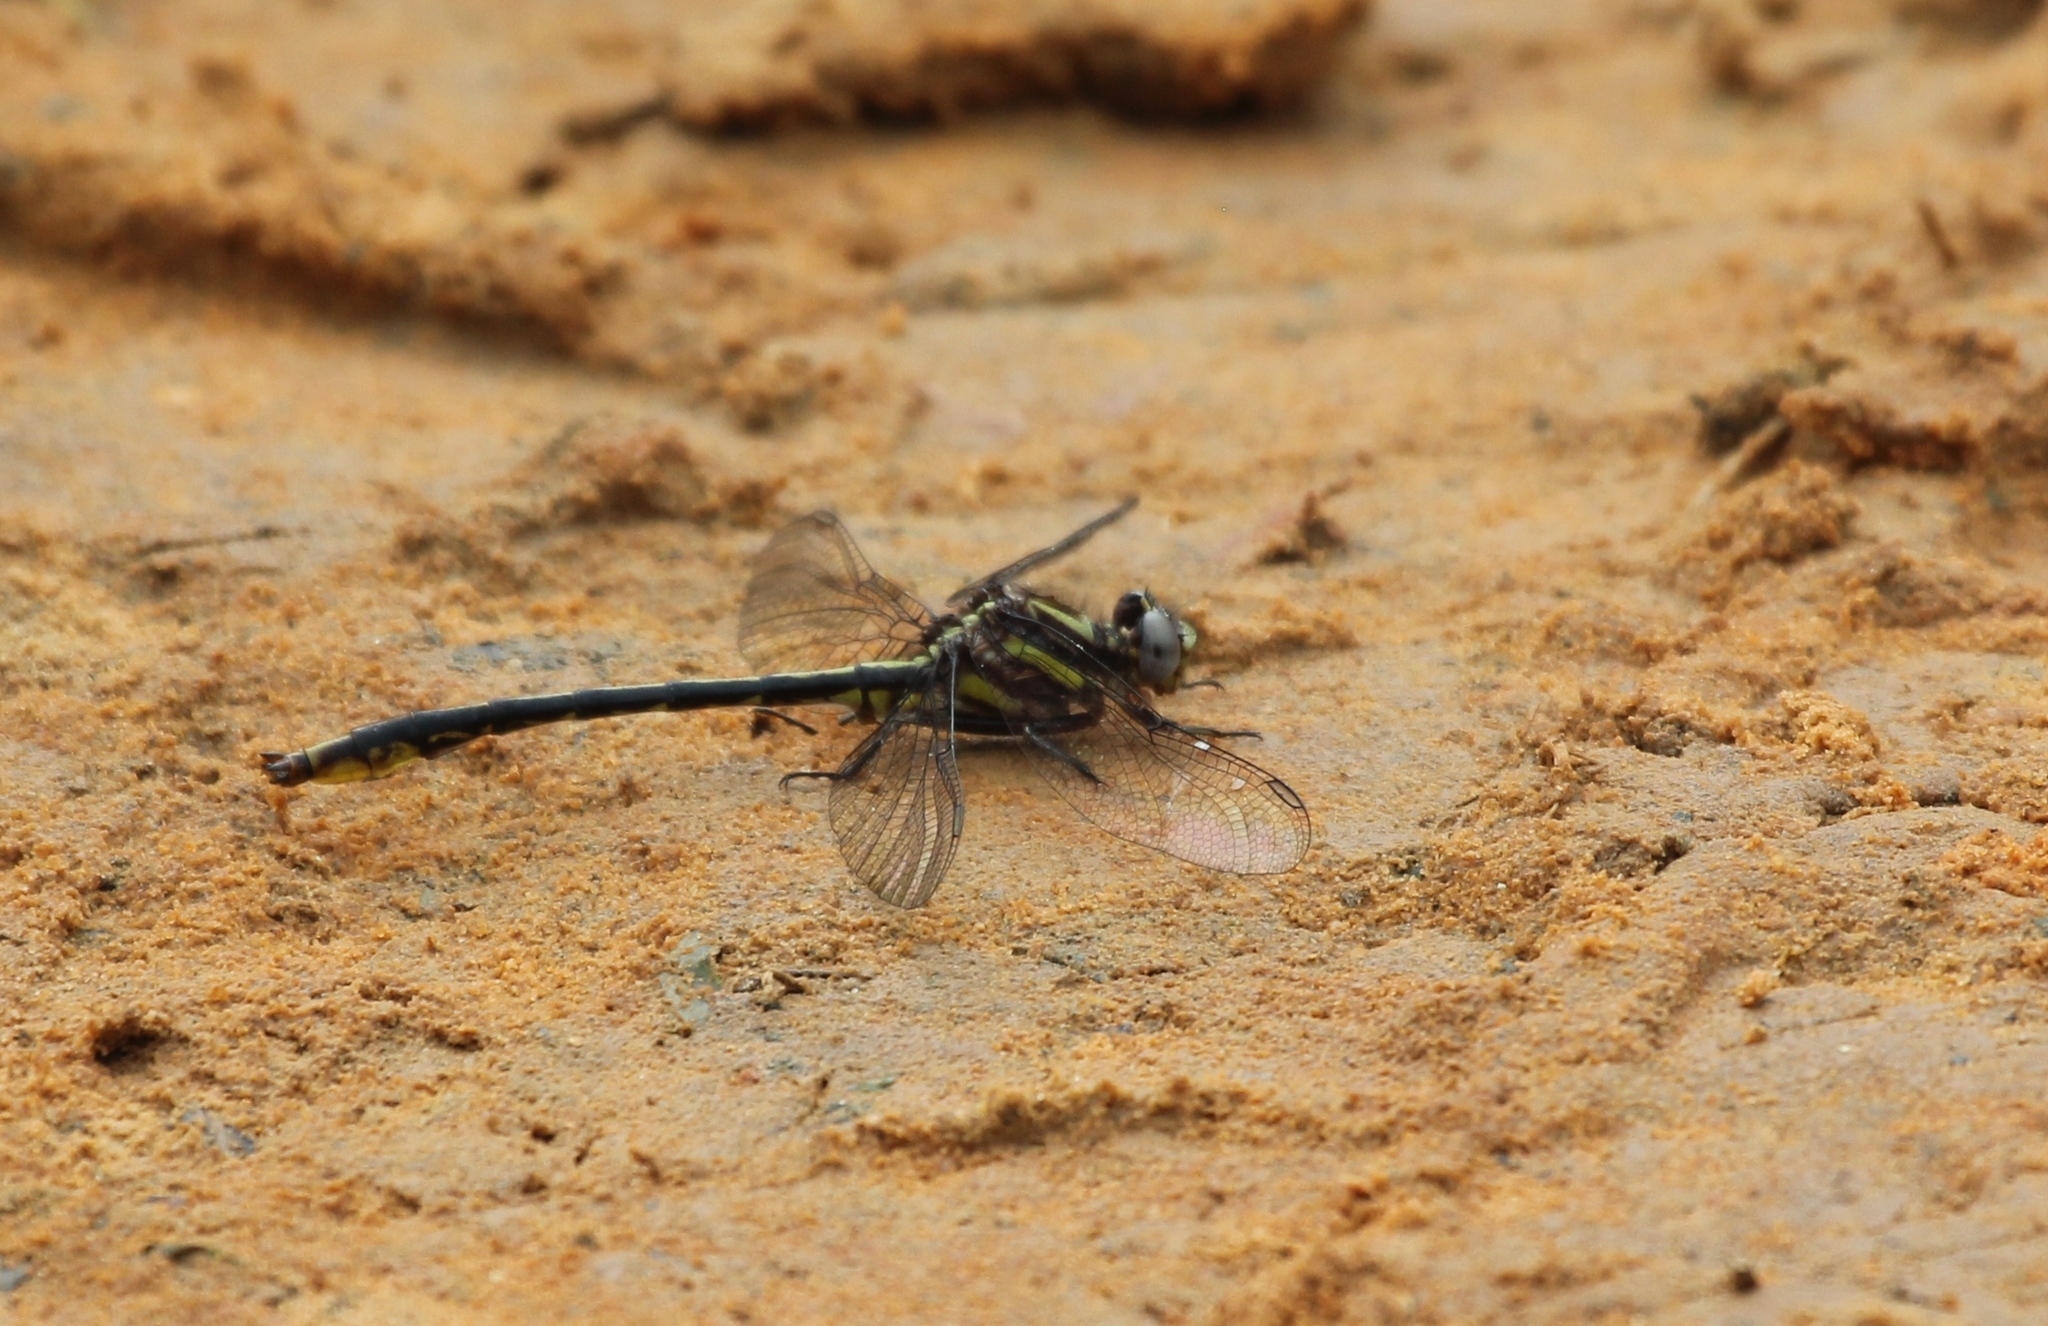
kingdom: Animalia
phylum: Arthropoda
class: Insecta
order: Odonata
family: Gomphidae
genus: Phanogomphus
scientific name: Phanogomphus exilis
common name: Lancet clubtail
